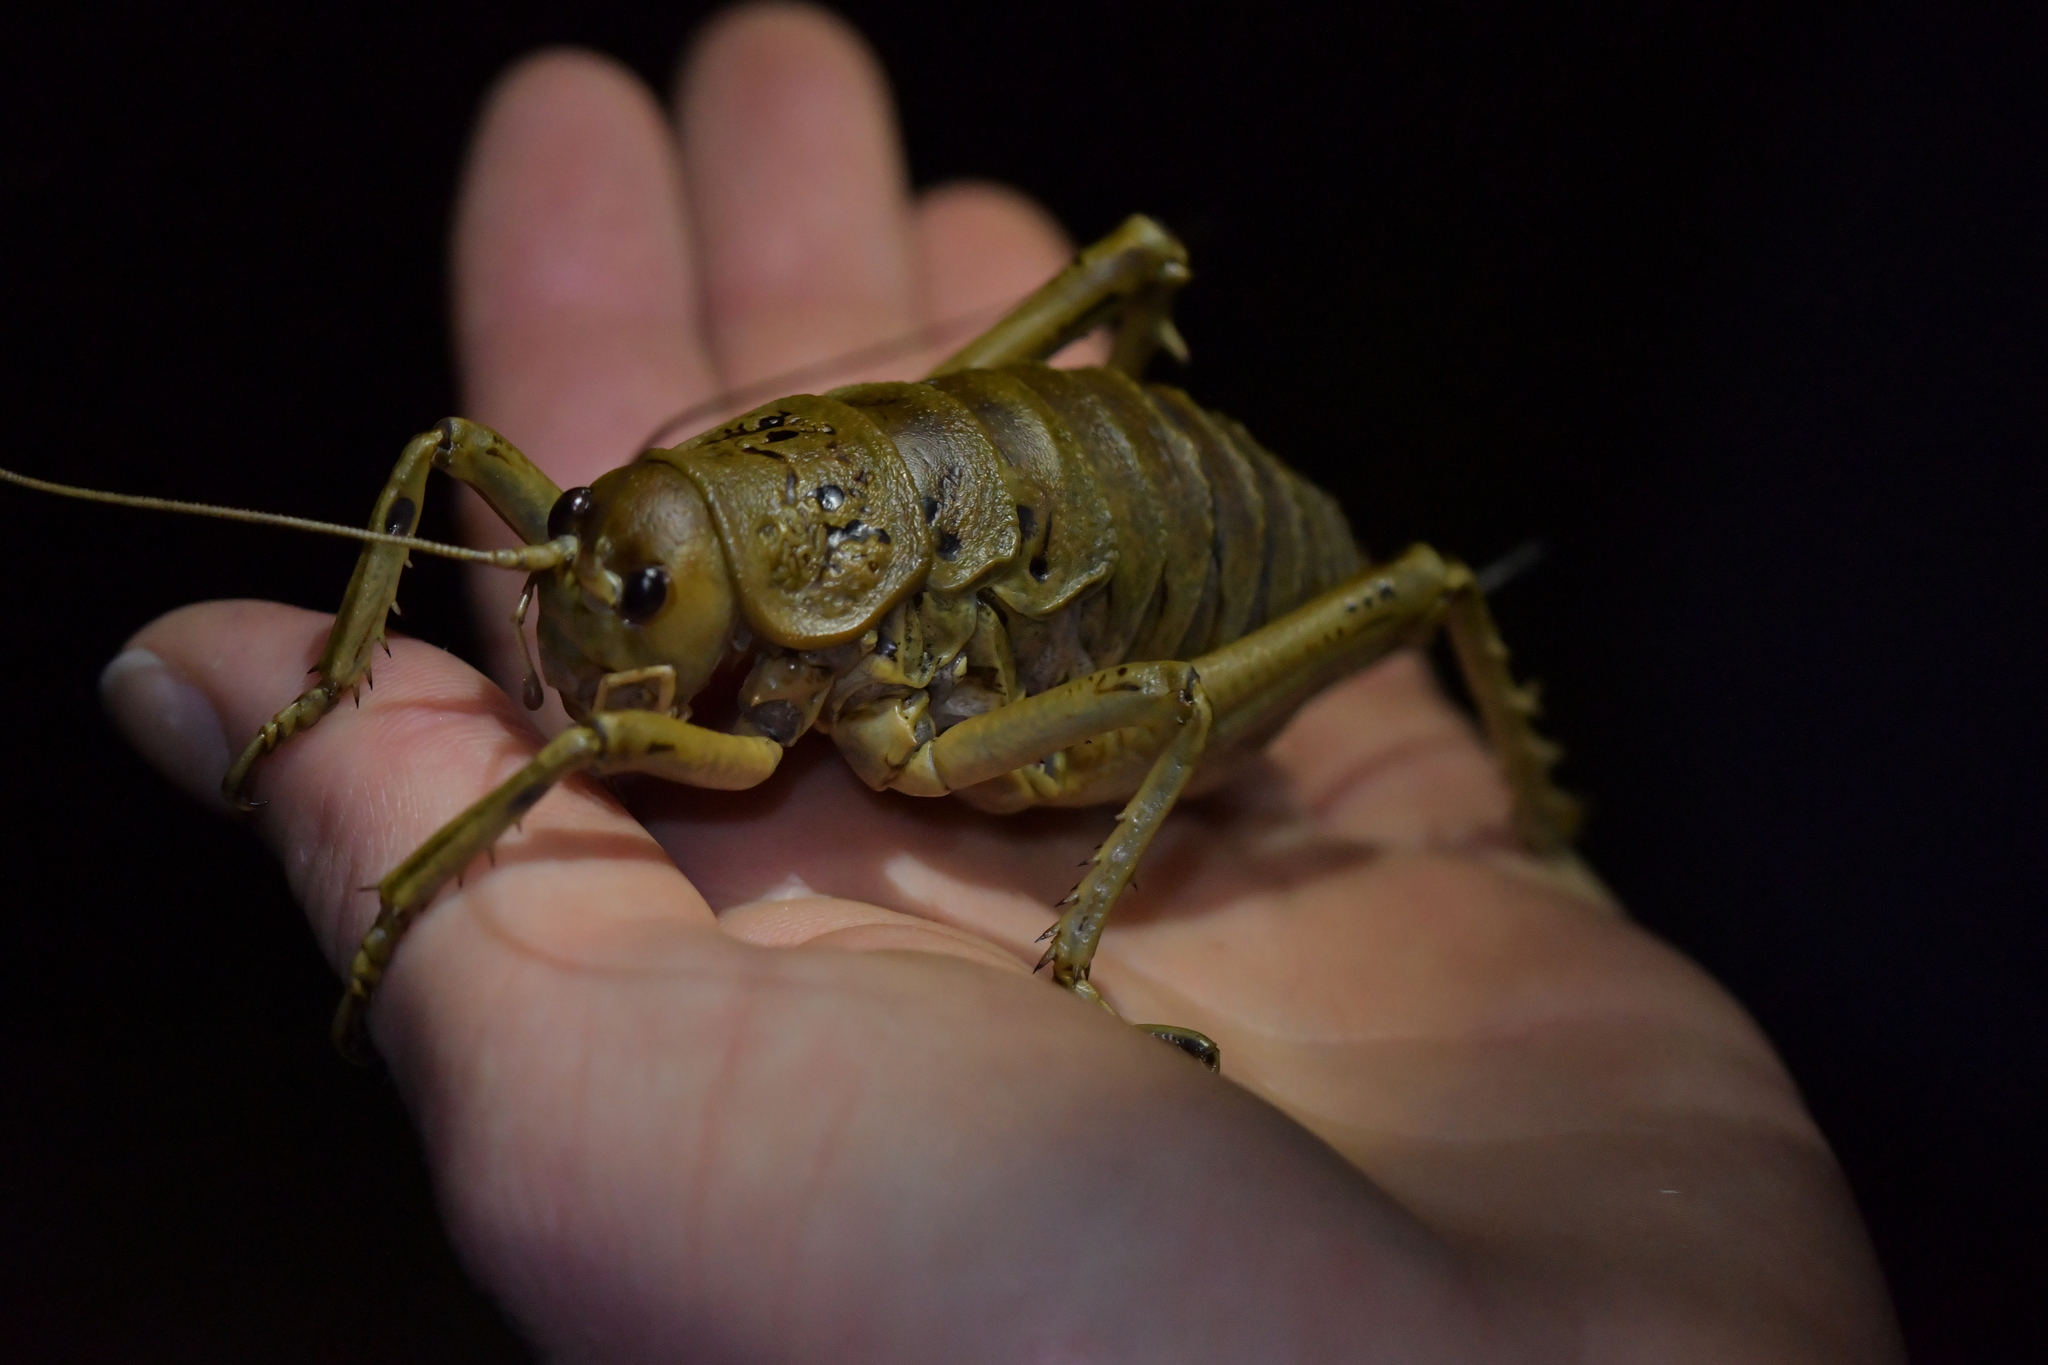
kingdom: Animalia
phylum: Arthropoda
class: Insecta
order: Orthoptera
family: Anostostomatidae
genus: Deinacrida
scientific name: Deinacrida rugosa
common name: Stephens island weta
